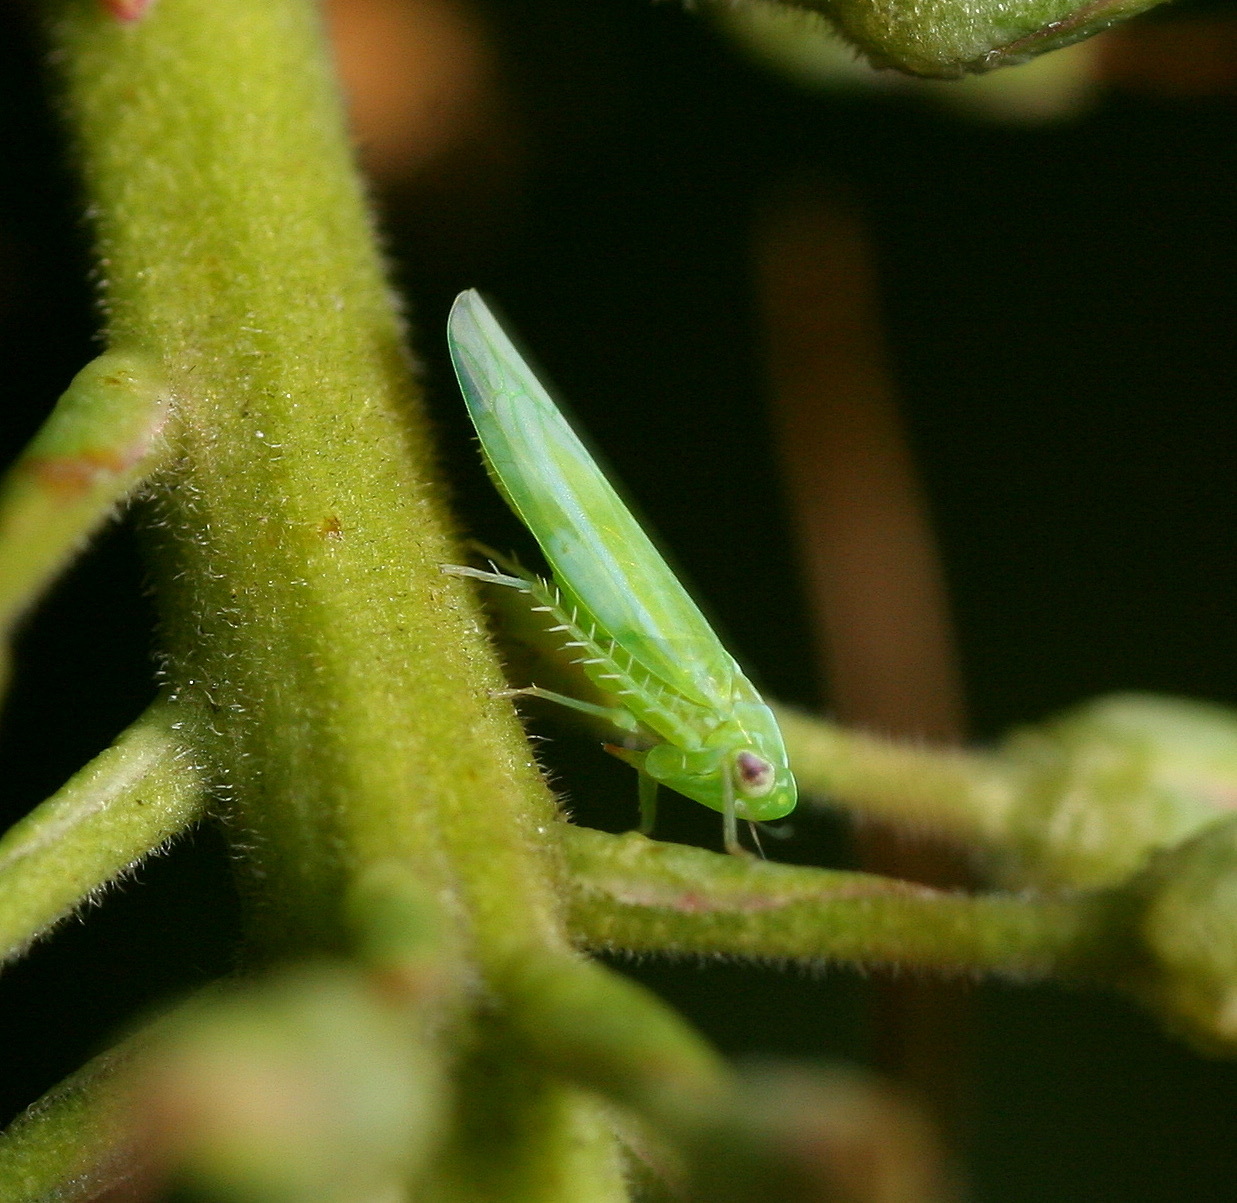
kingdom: Animalia
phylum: Arthropoda
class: Insecta
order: Hemiptera
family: Cicadellidae
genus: Hebata
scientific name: Hebata vitis
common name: The smaller green leafhopper
